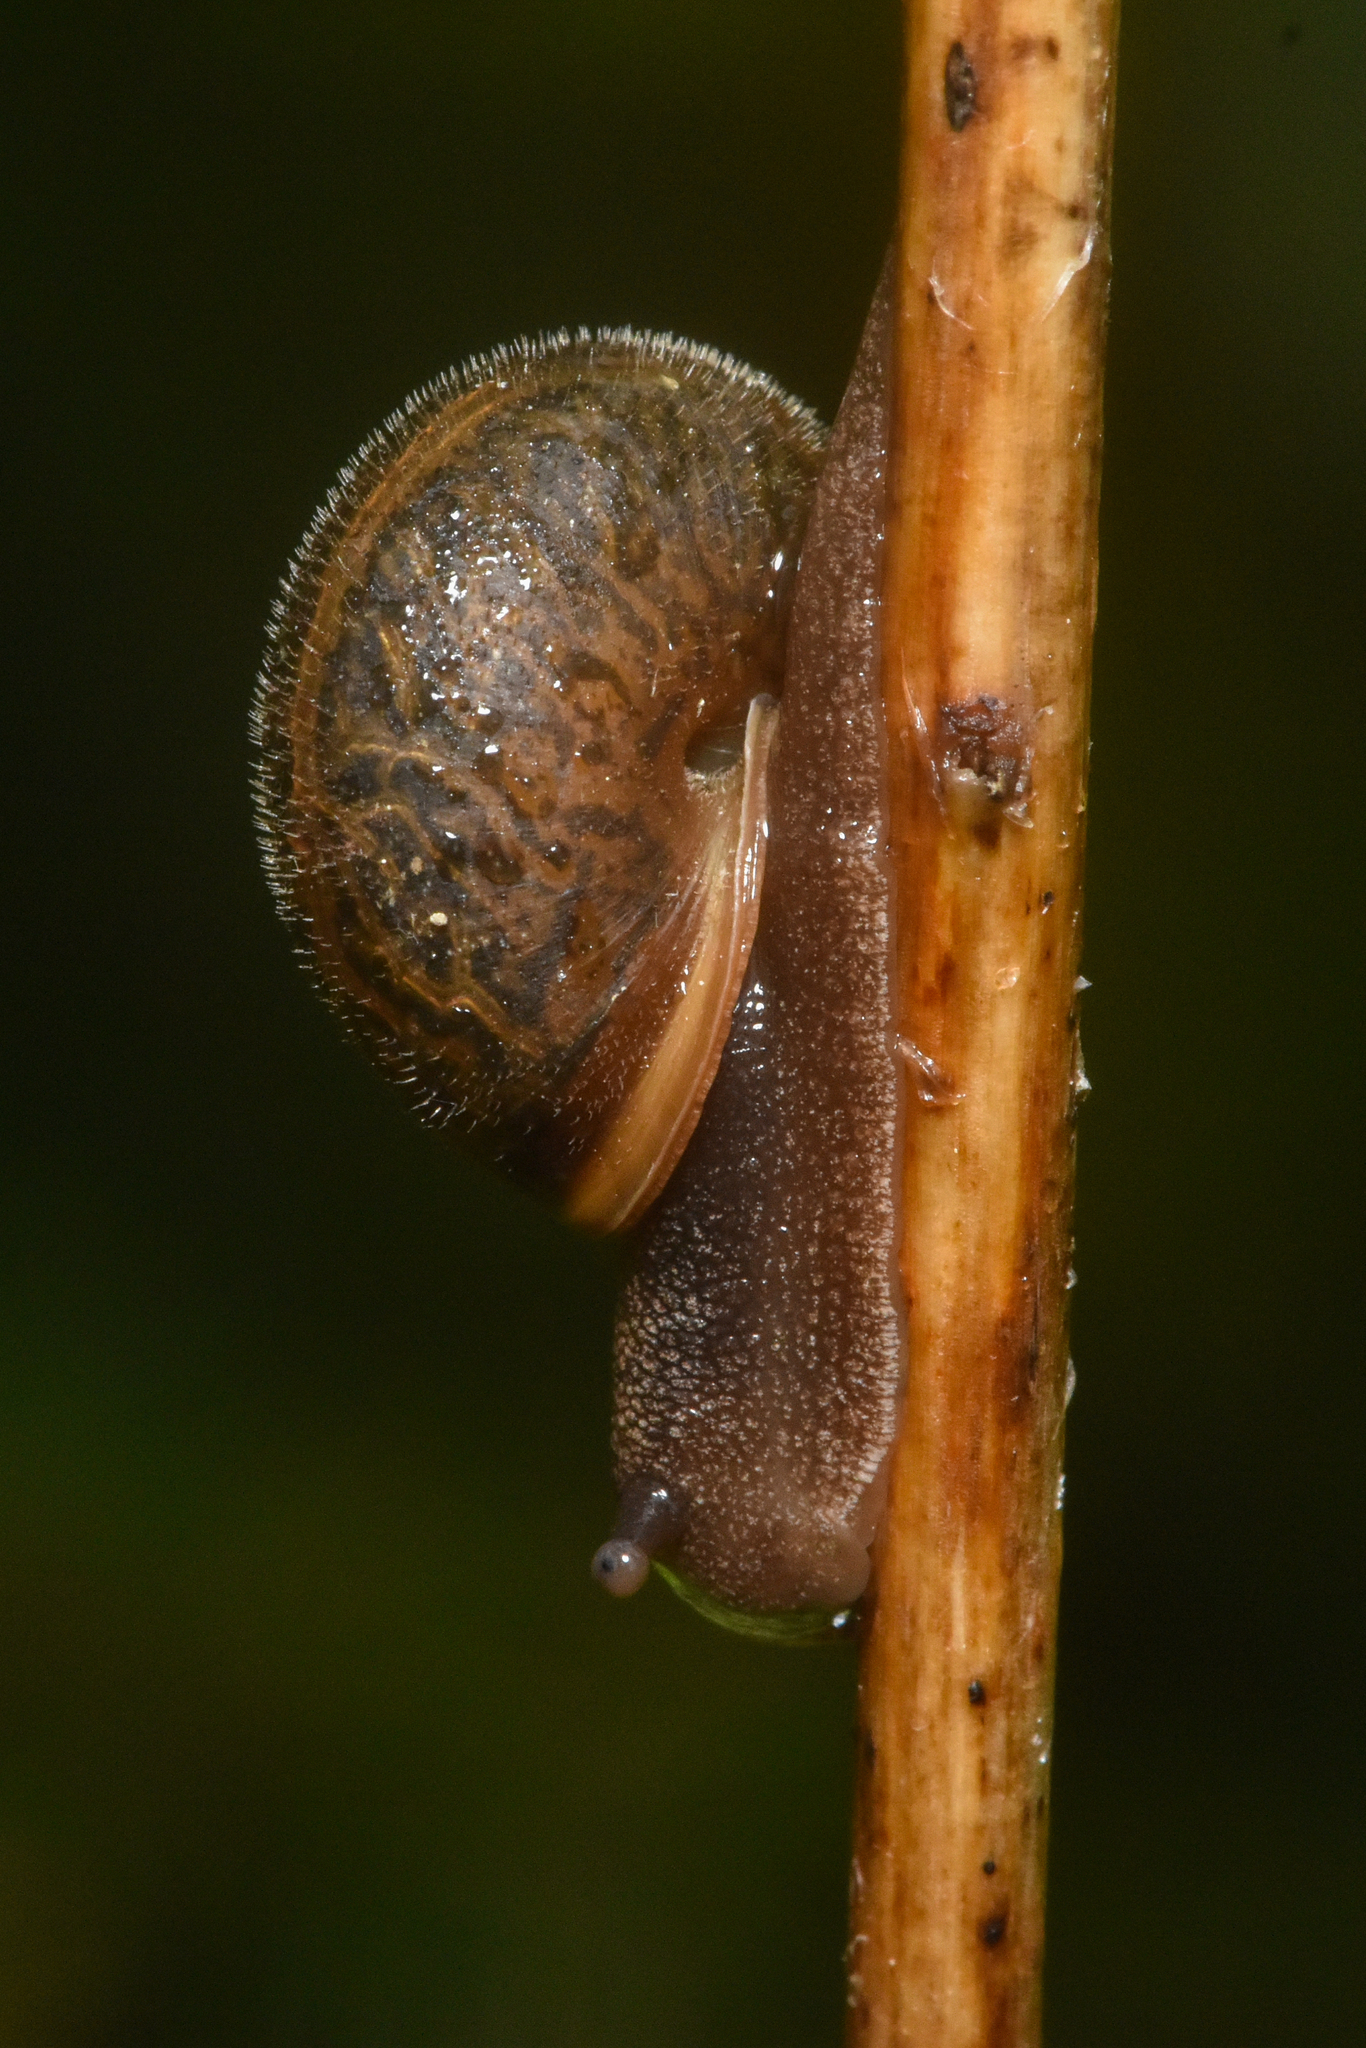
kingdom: Animalia
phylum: Mollusca
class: Gastropoda
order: Stylommatophora
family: Polygyridae
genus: Vespericola
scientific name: Vespericola columbianus
